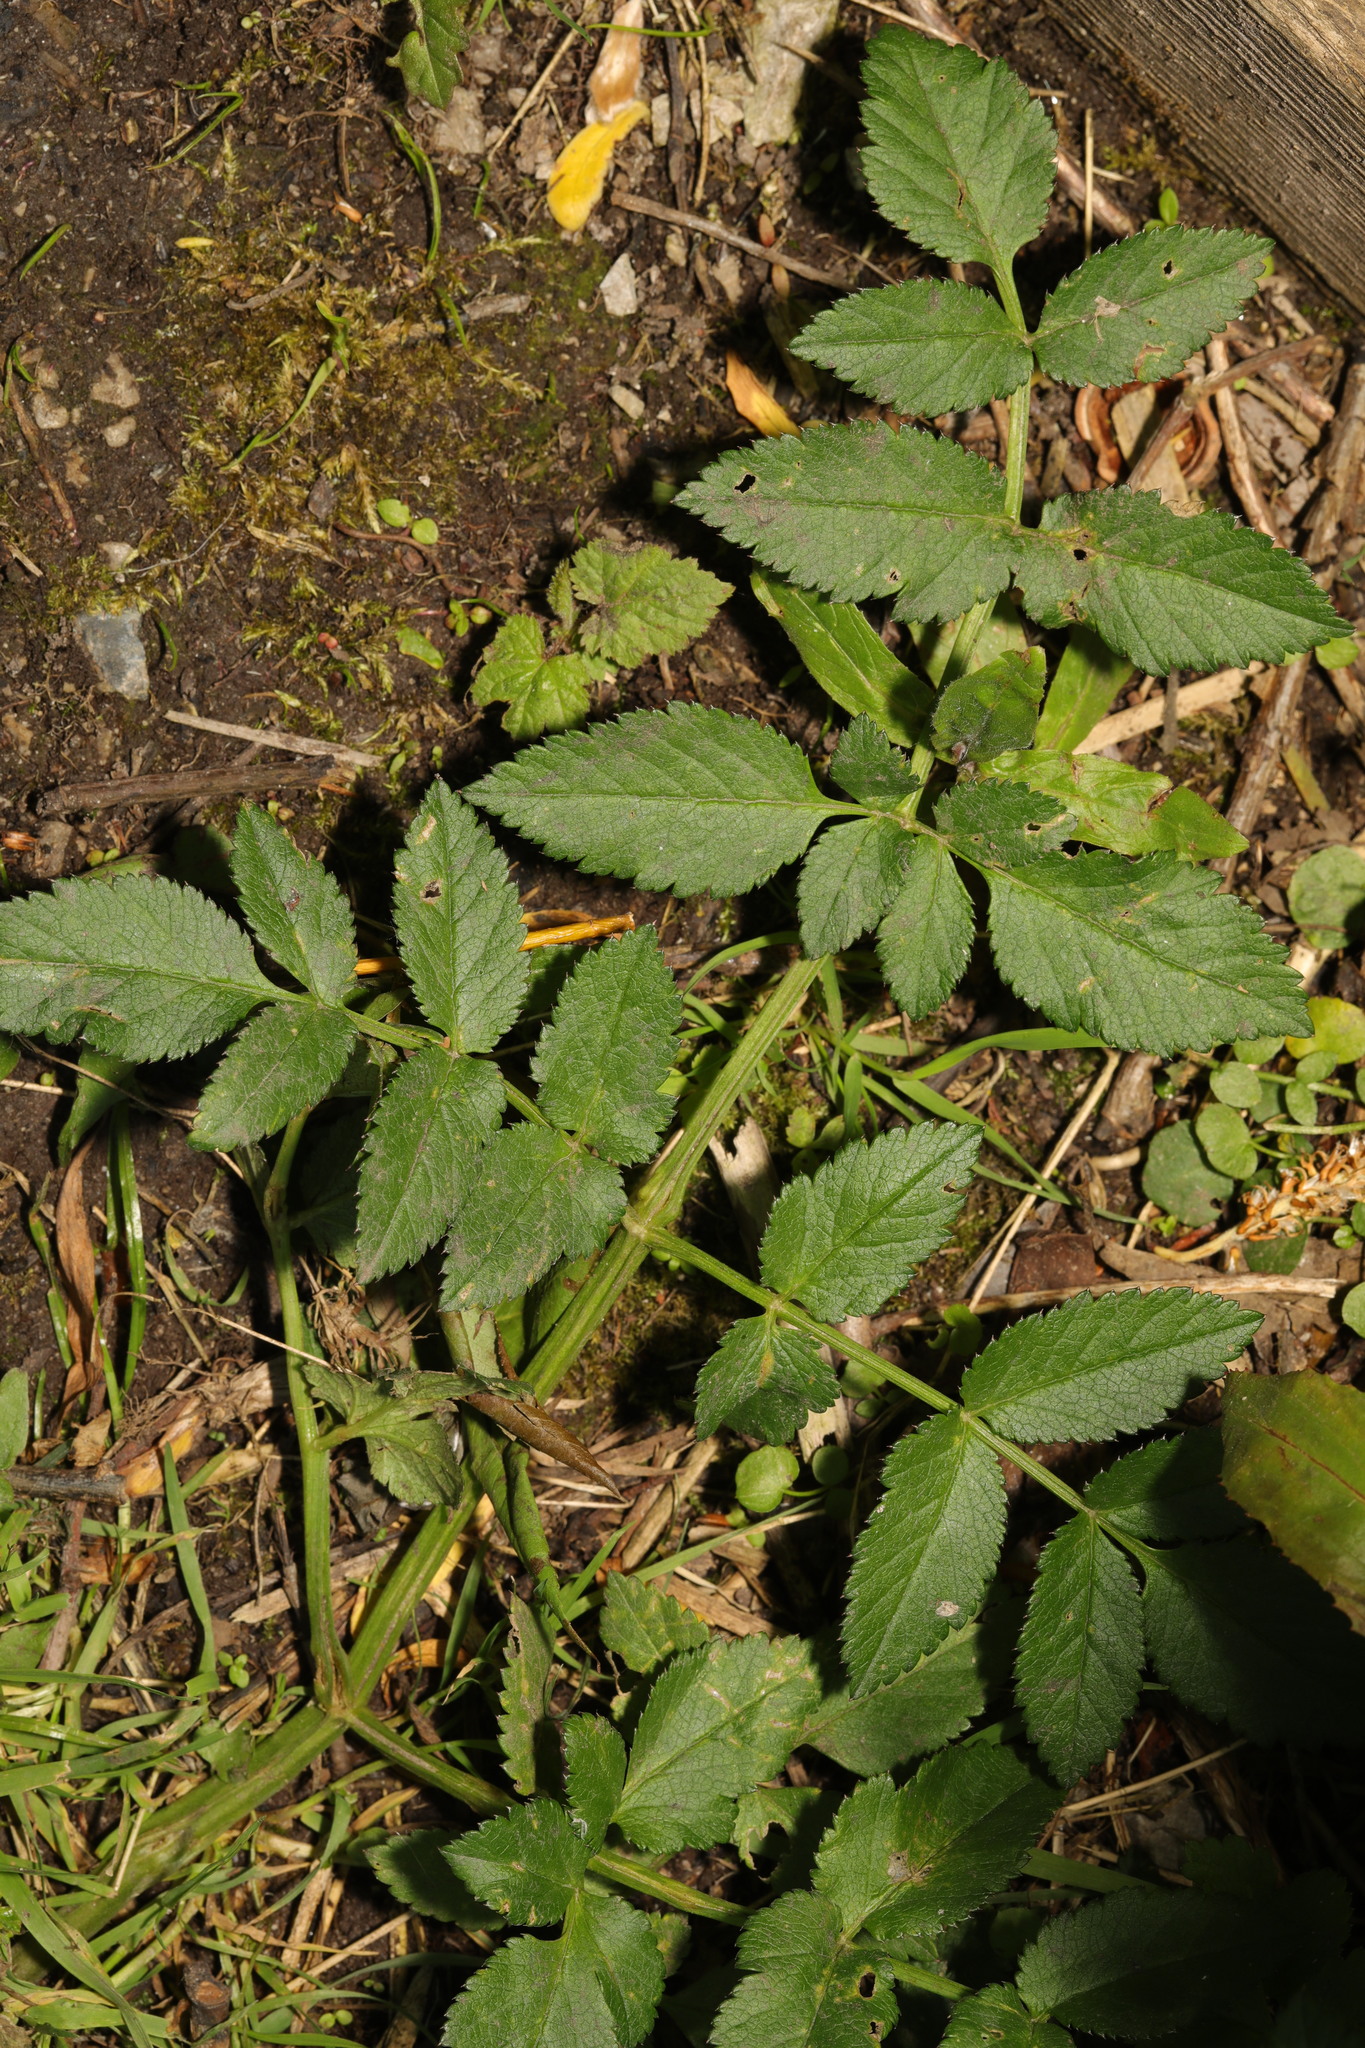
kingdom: Plantae
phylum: Tracheophyta
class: Magnoliopsida
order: Apiales
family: Apiaceae
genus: Angelica
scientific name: Angelica sylvestris
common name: Wild angelica
